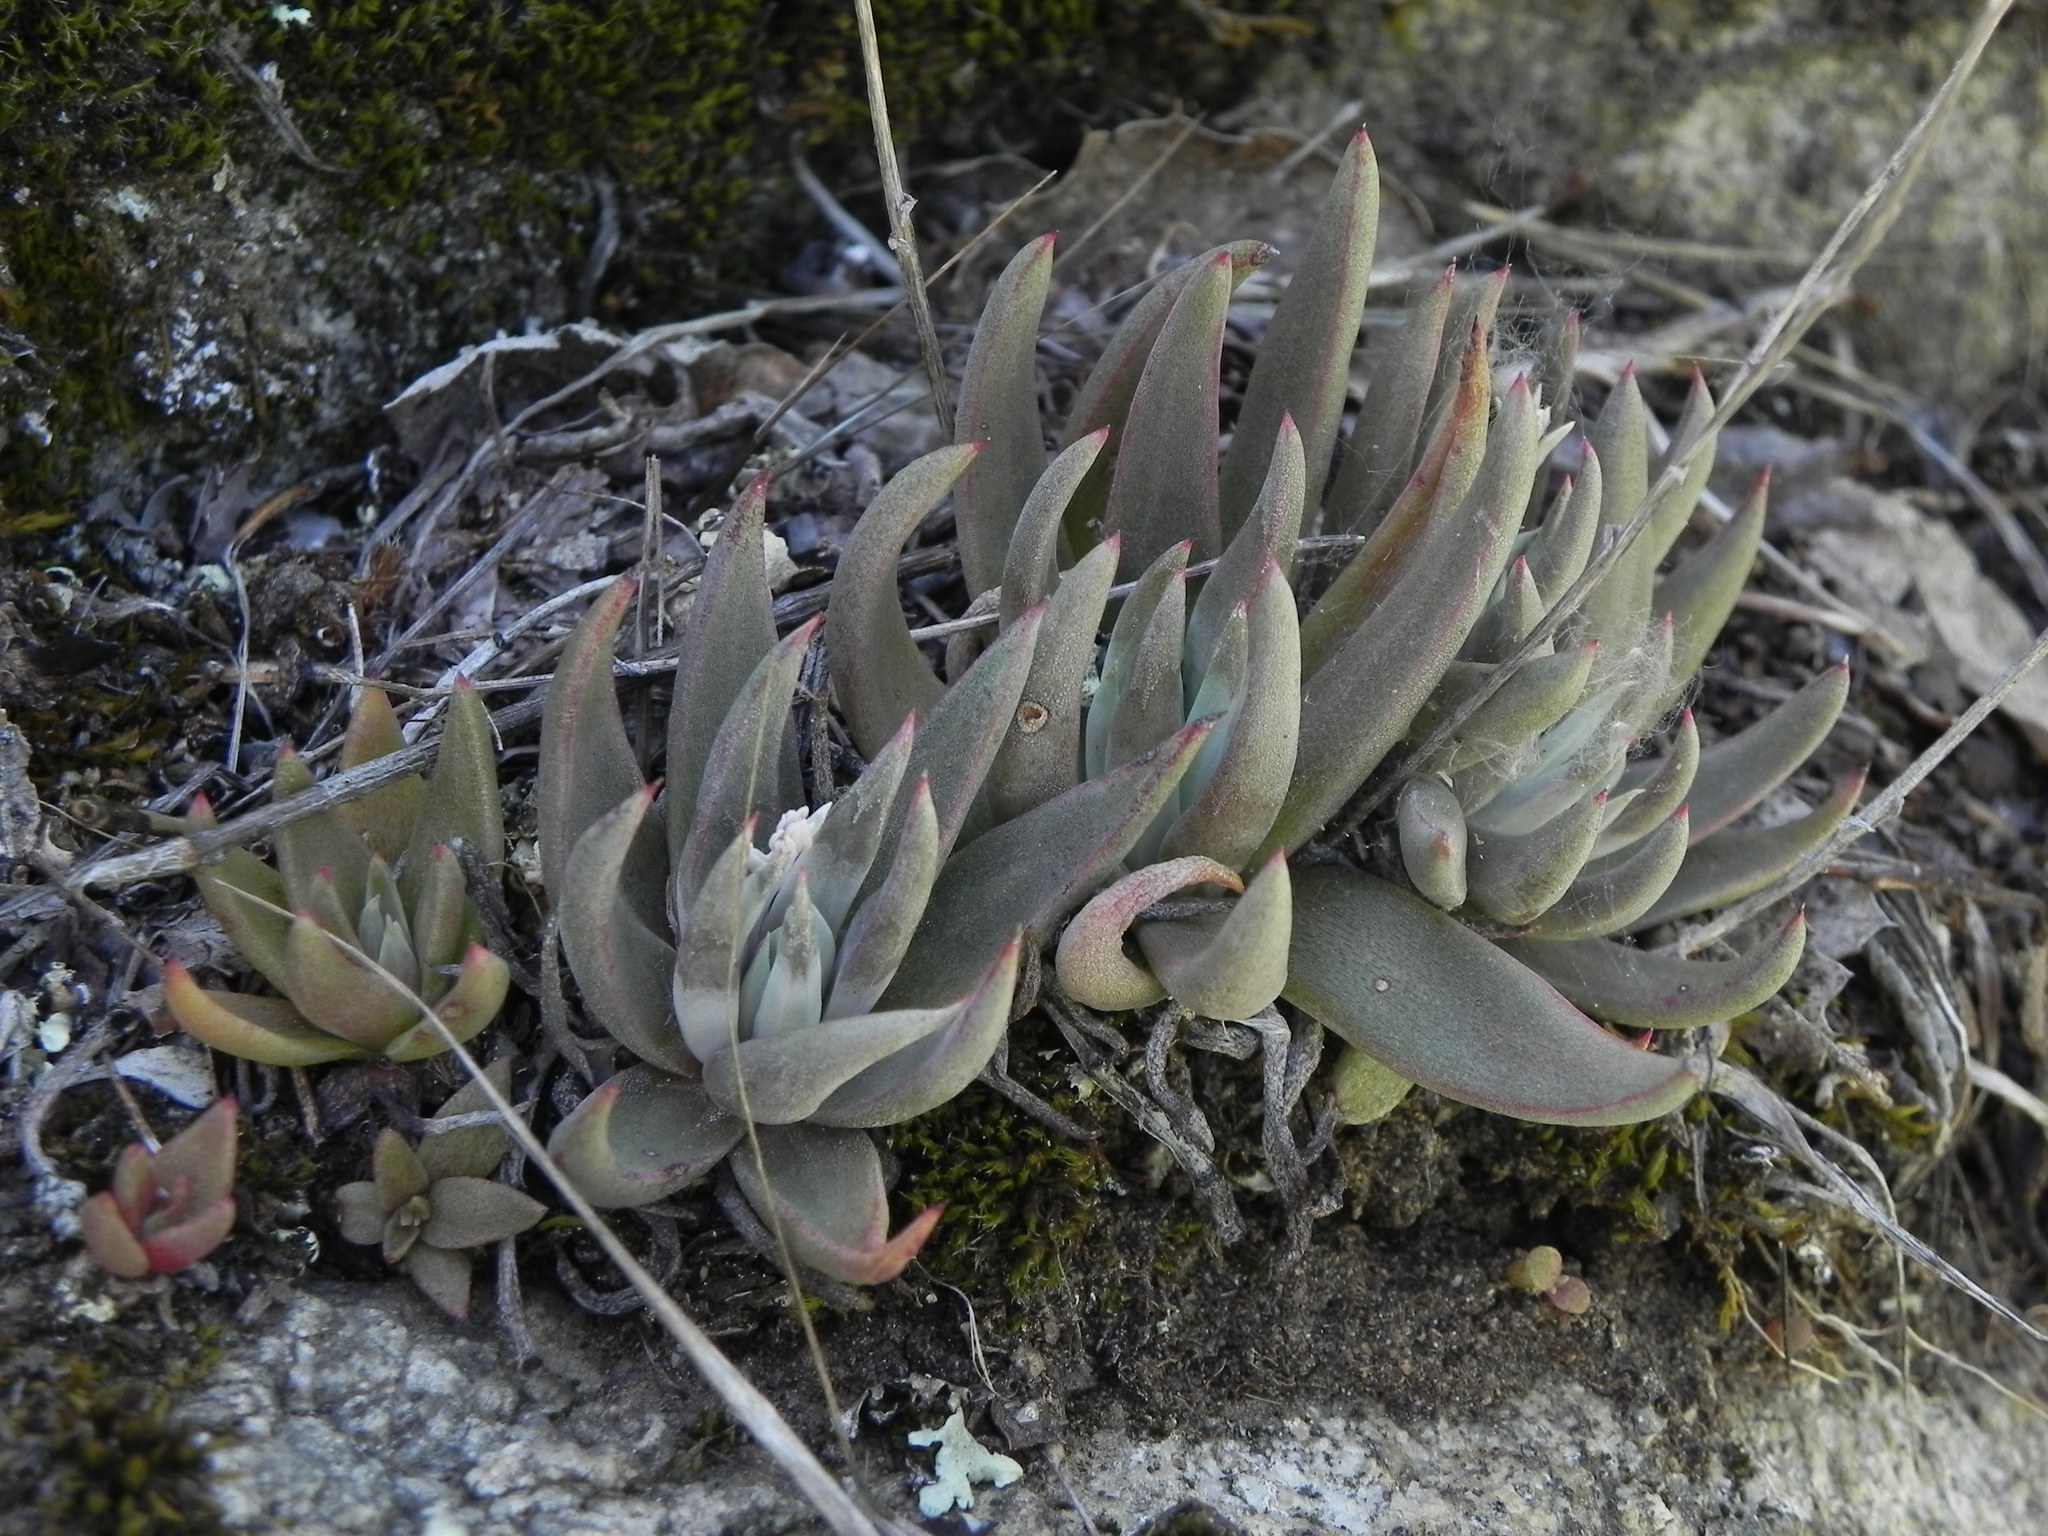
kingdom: Plantae
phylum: Tracheophyta
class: Magnoliopsida
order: Saxifragales
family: Crassulaceae
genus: Dudleya
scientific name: Dudleya abramsii
